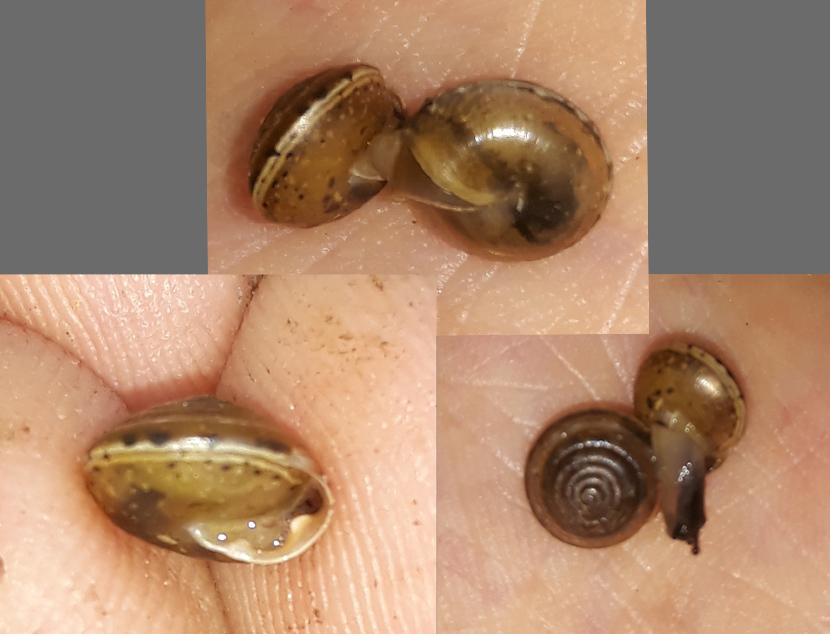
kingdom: Animalia
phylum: Mollusca
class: Gastropoda
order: Stylommatophora
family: Hygromiidae
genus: Perforatella
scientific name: Perforatella bidentata
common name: Double-tooth hairy snail
